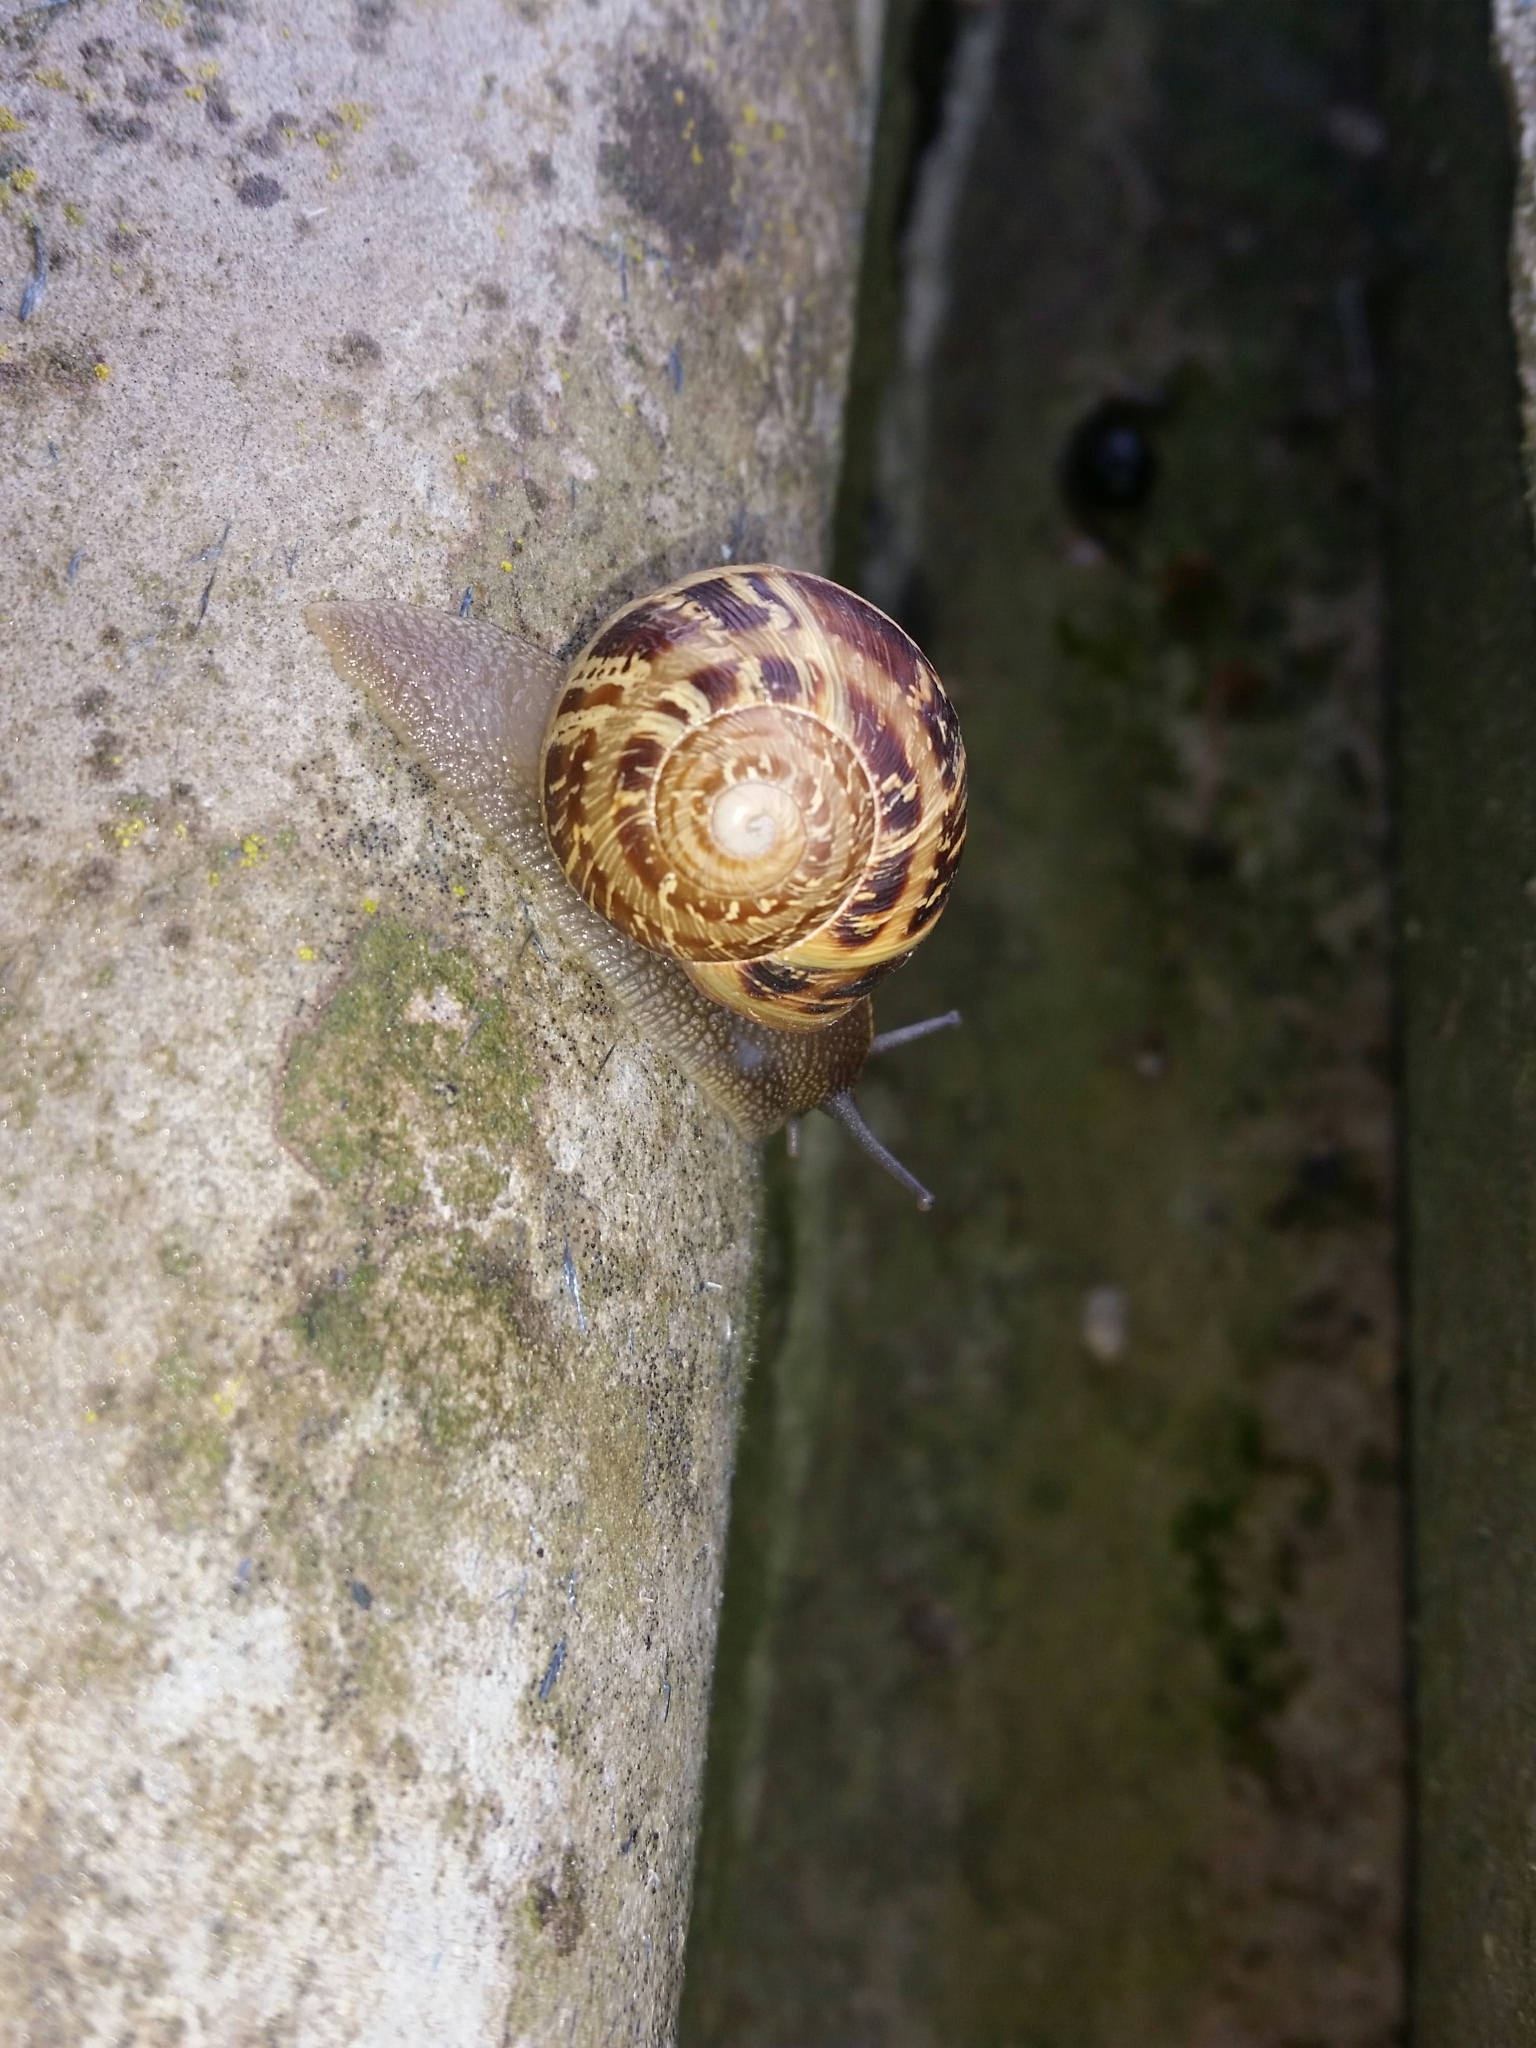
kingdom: Animalia
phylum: Mollusca
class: Gastropoda
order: Stylommatophora
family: Helicidae
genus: Cornu
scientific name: Cornu aspersum
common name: Brown garden snail
